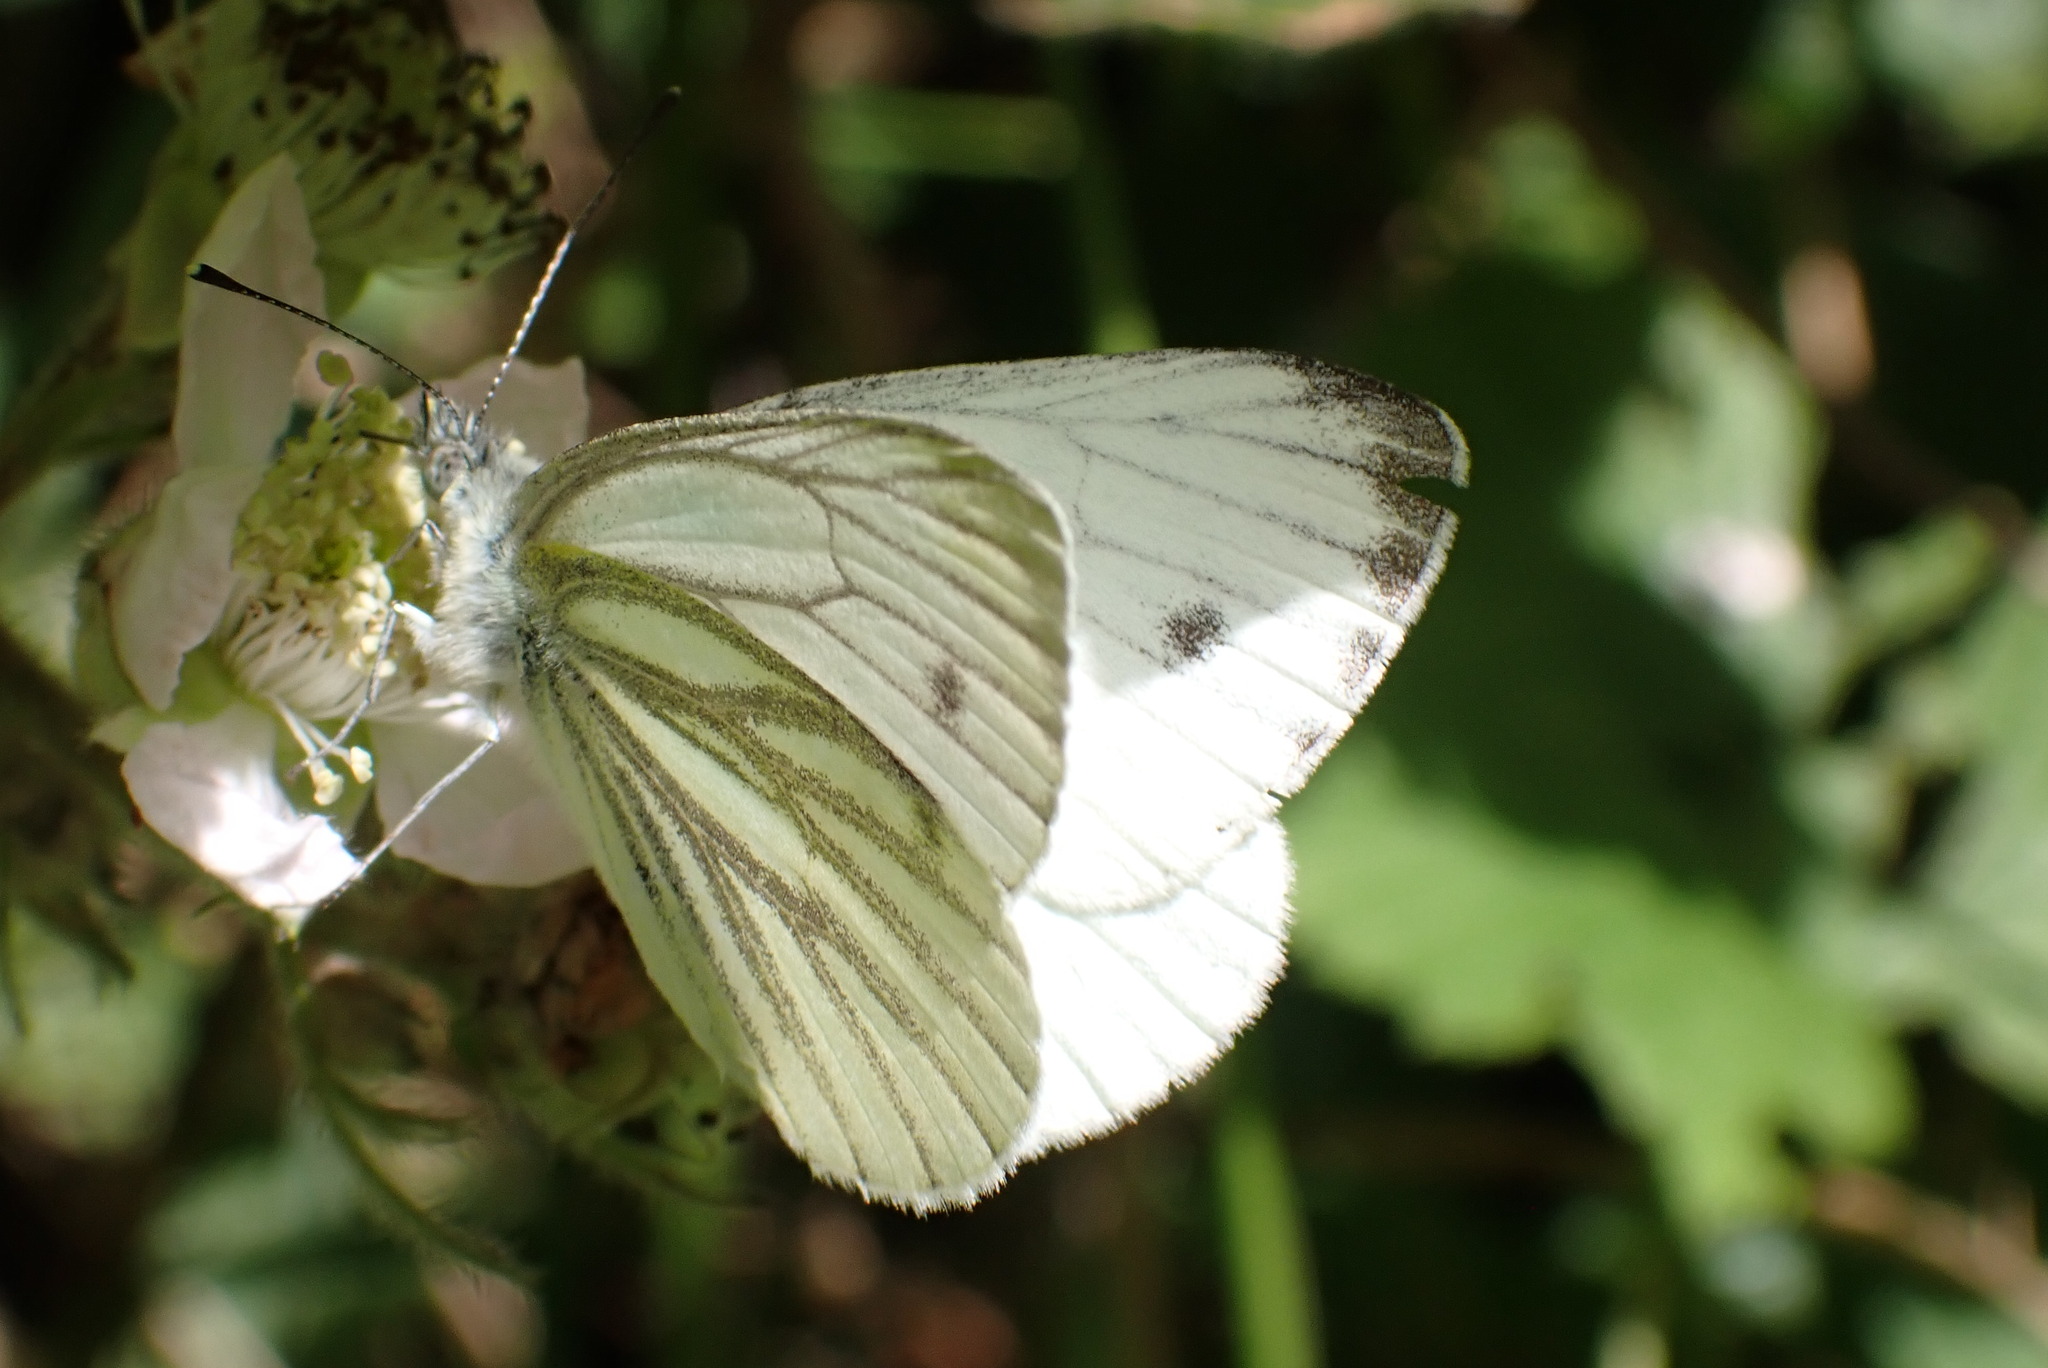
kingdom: Animalia
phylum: Arthropoda
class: Insecta
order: Lepidoptera
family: Pieridae
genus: Pieris
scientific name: Pieris napi
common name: Green-veined white
